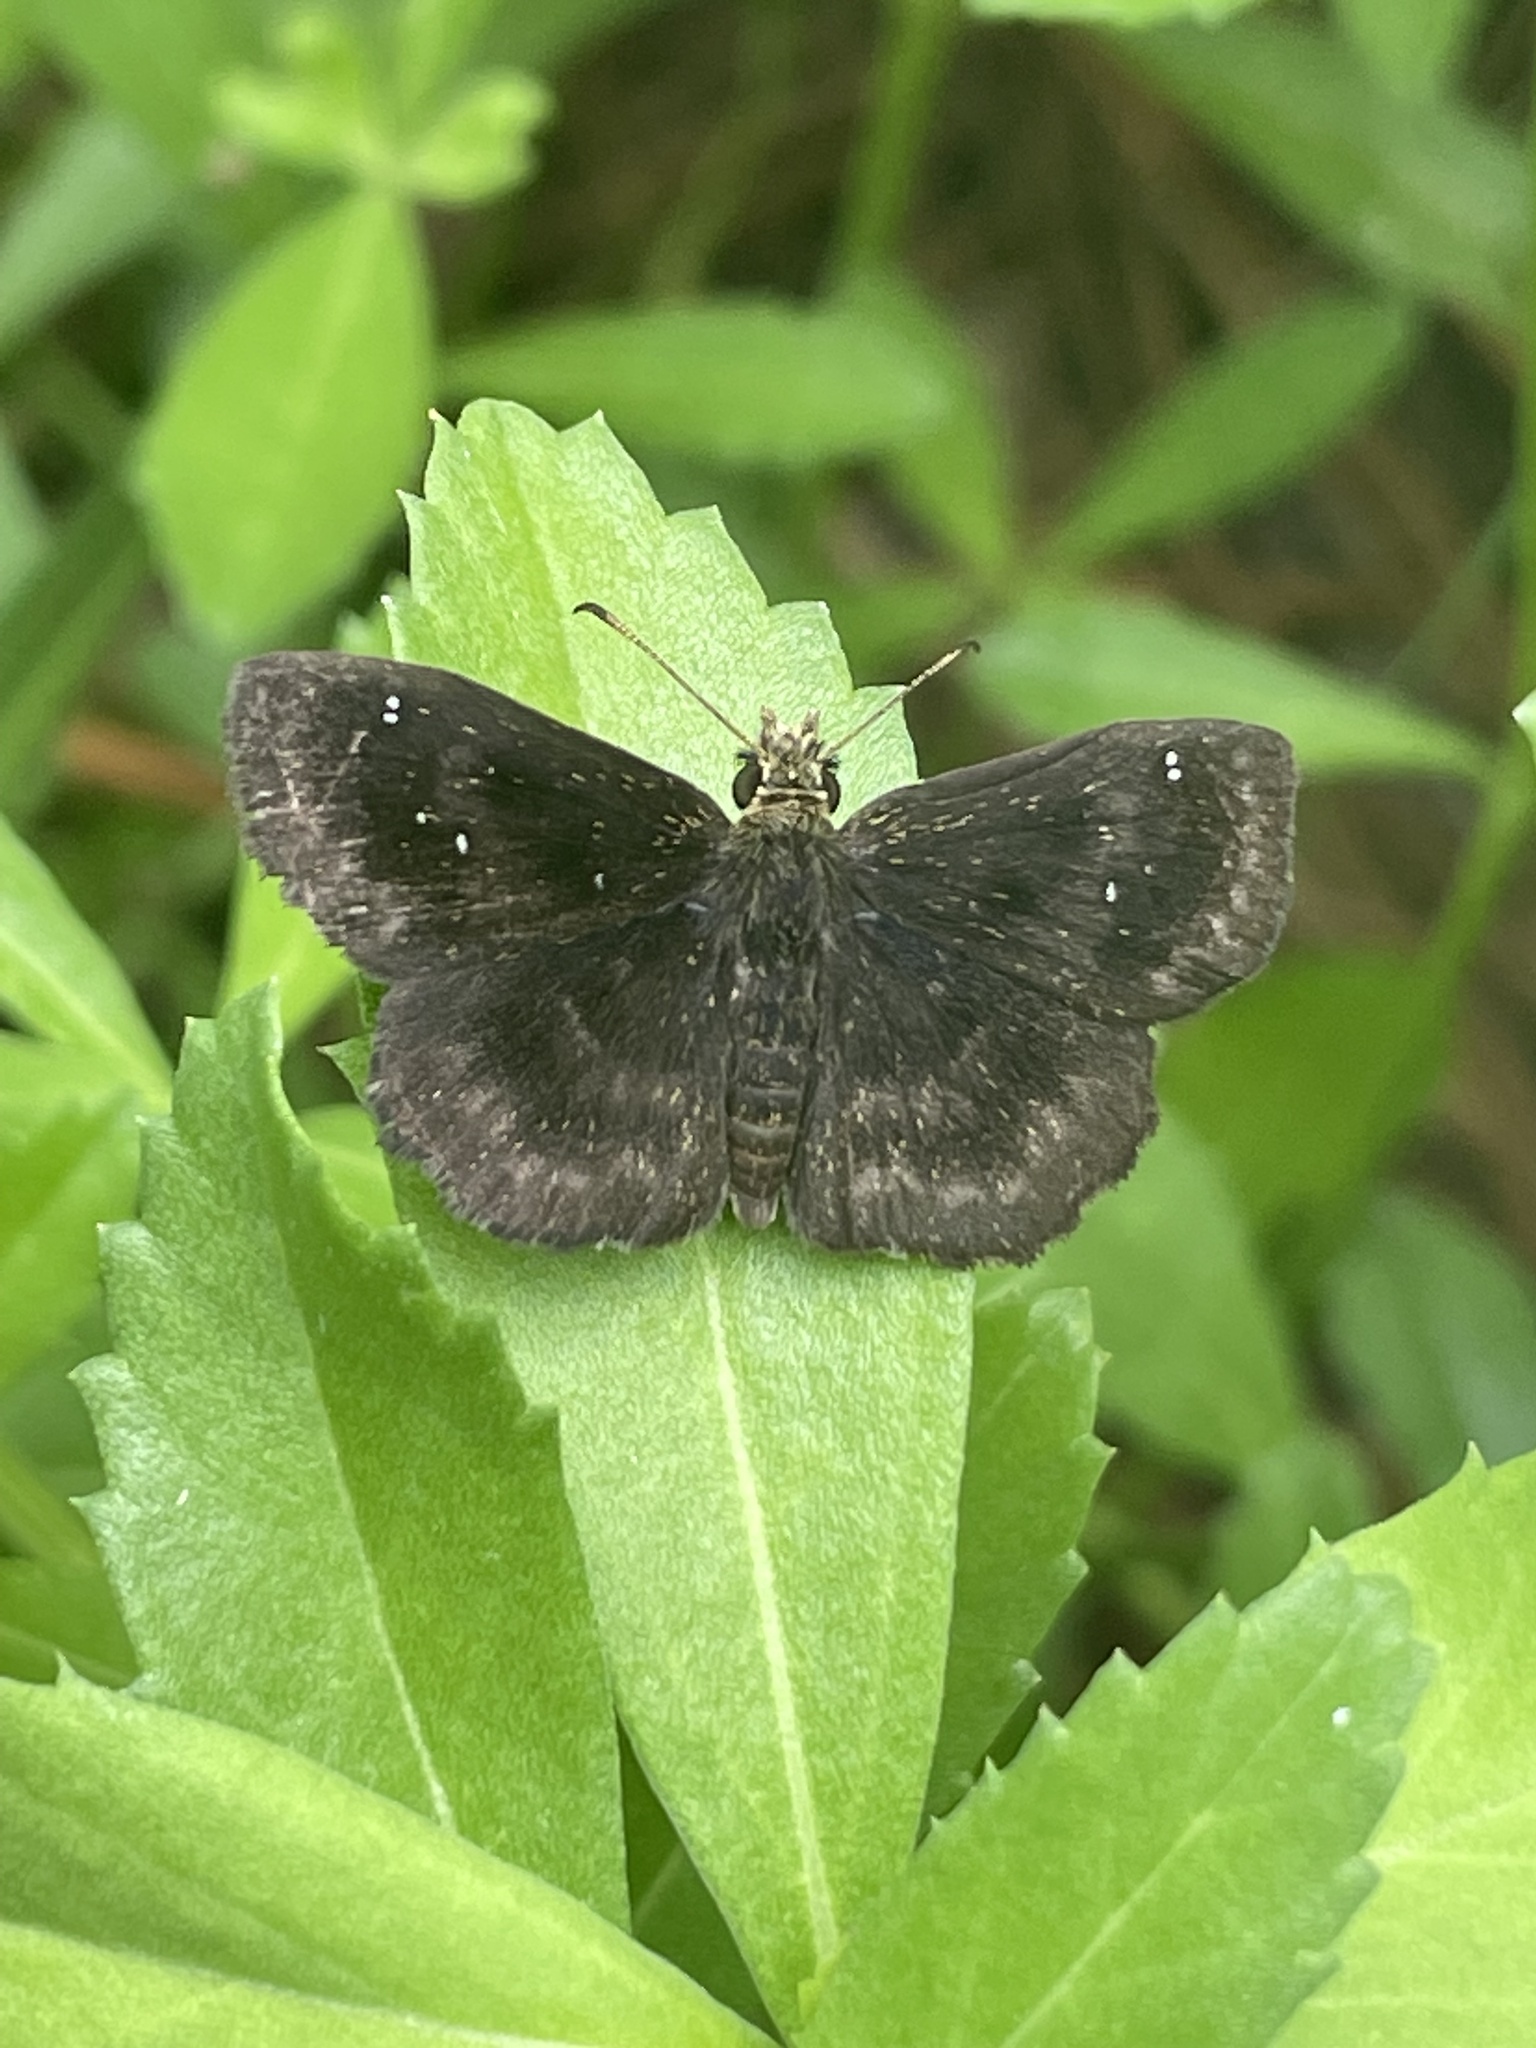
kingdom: Animalia
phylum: Arthropoda
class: Insecta
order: Lepidoptera
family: Hesperiidae
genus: Staphylus
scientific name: Staphylus mazans
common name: Mazans scallopwing
